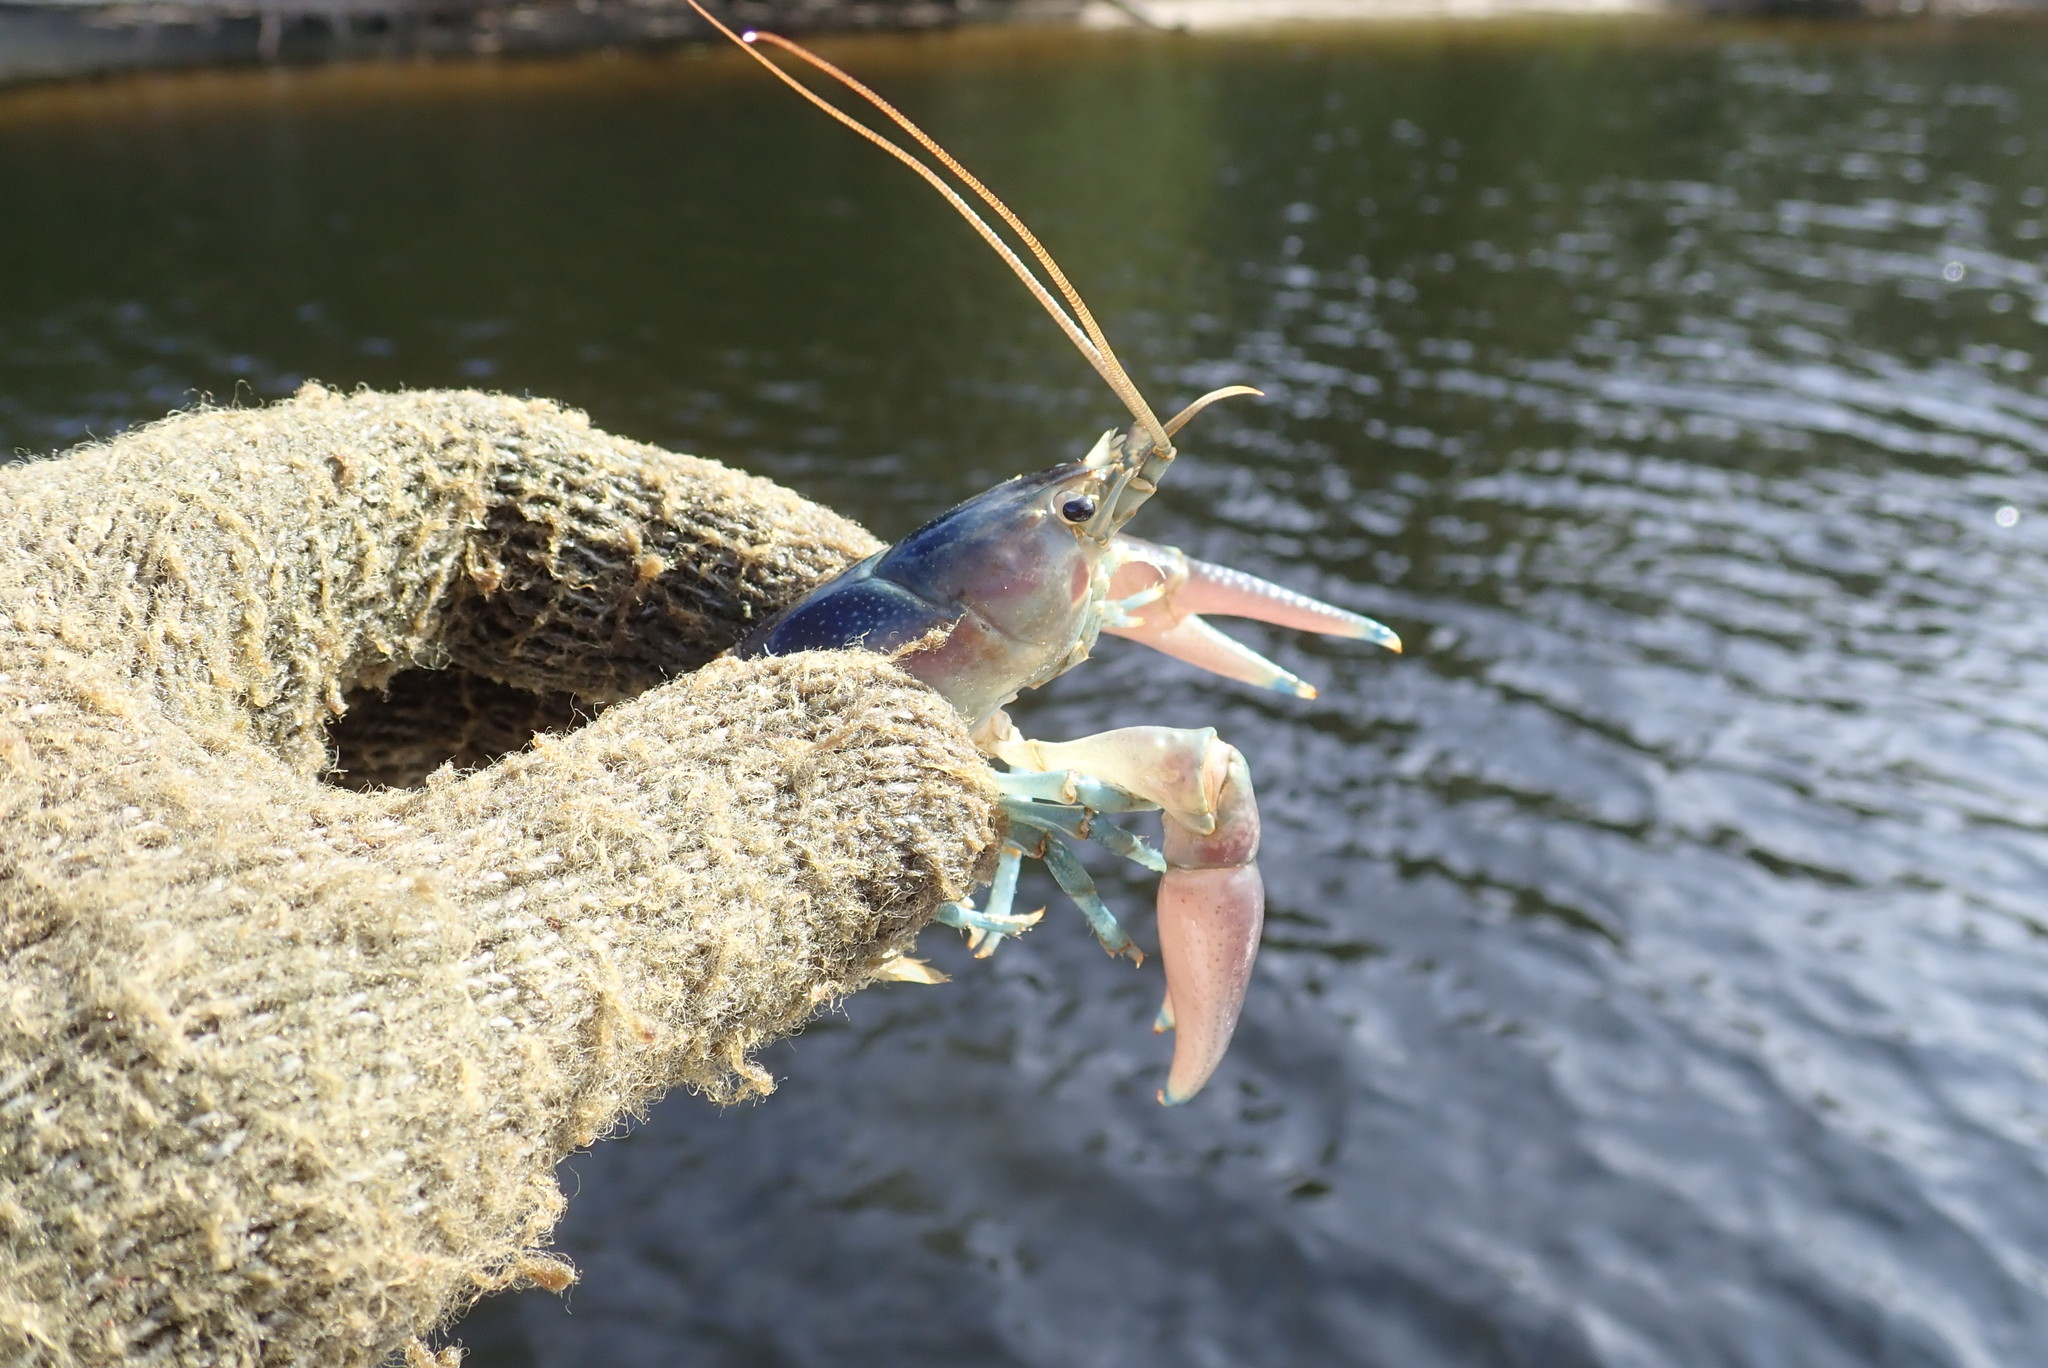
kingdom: Animalia
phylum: Arthropoda
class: Malacostraca
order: Decapoda
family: Cambaridae
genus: Faxonius
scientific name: Faxonius rusticus
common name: Rusty crayfish
